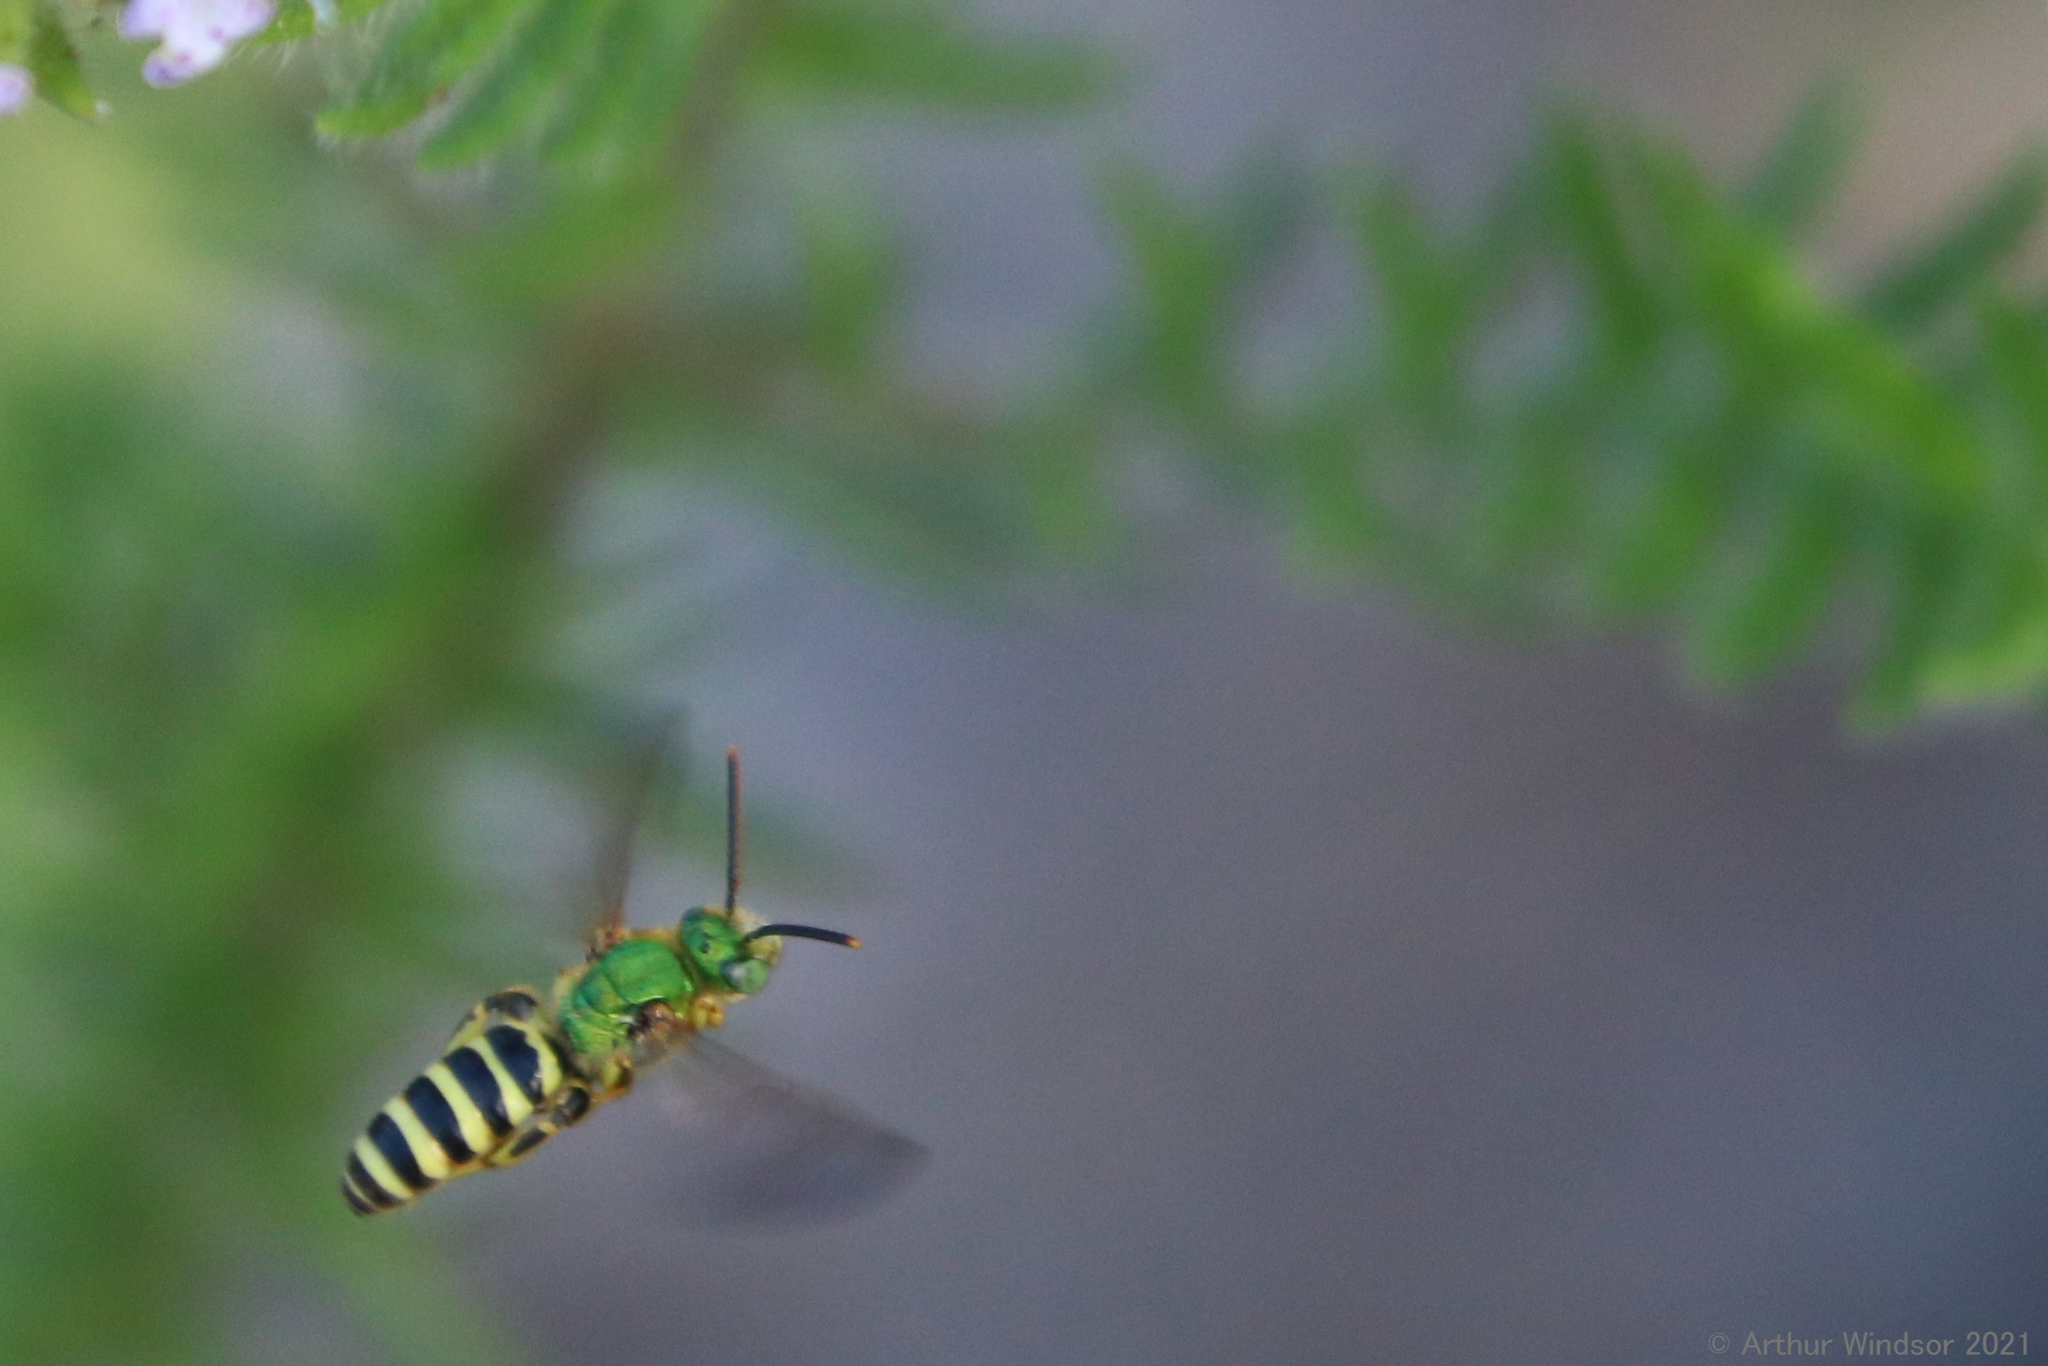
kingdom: Animalia
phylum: Arthropoda
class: Insecta
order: Hymenoptera
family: Halictidae
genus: Agapostemon
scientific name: Agapostemon splendens
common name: Brown-winged striped sweat bee
